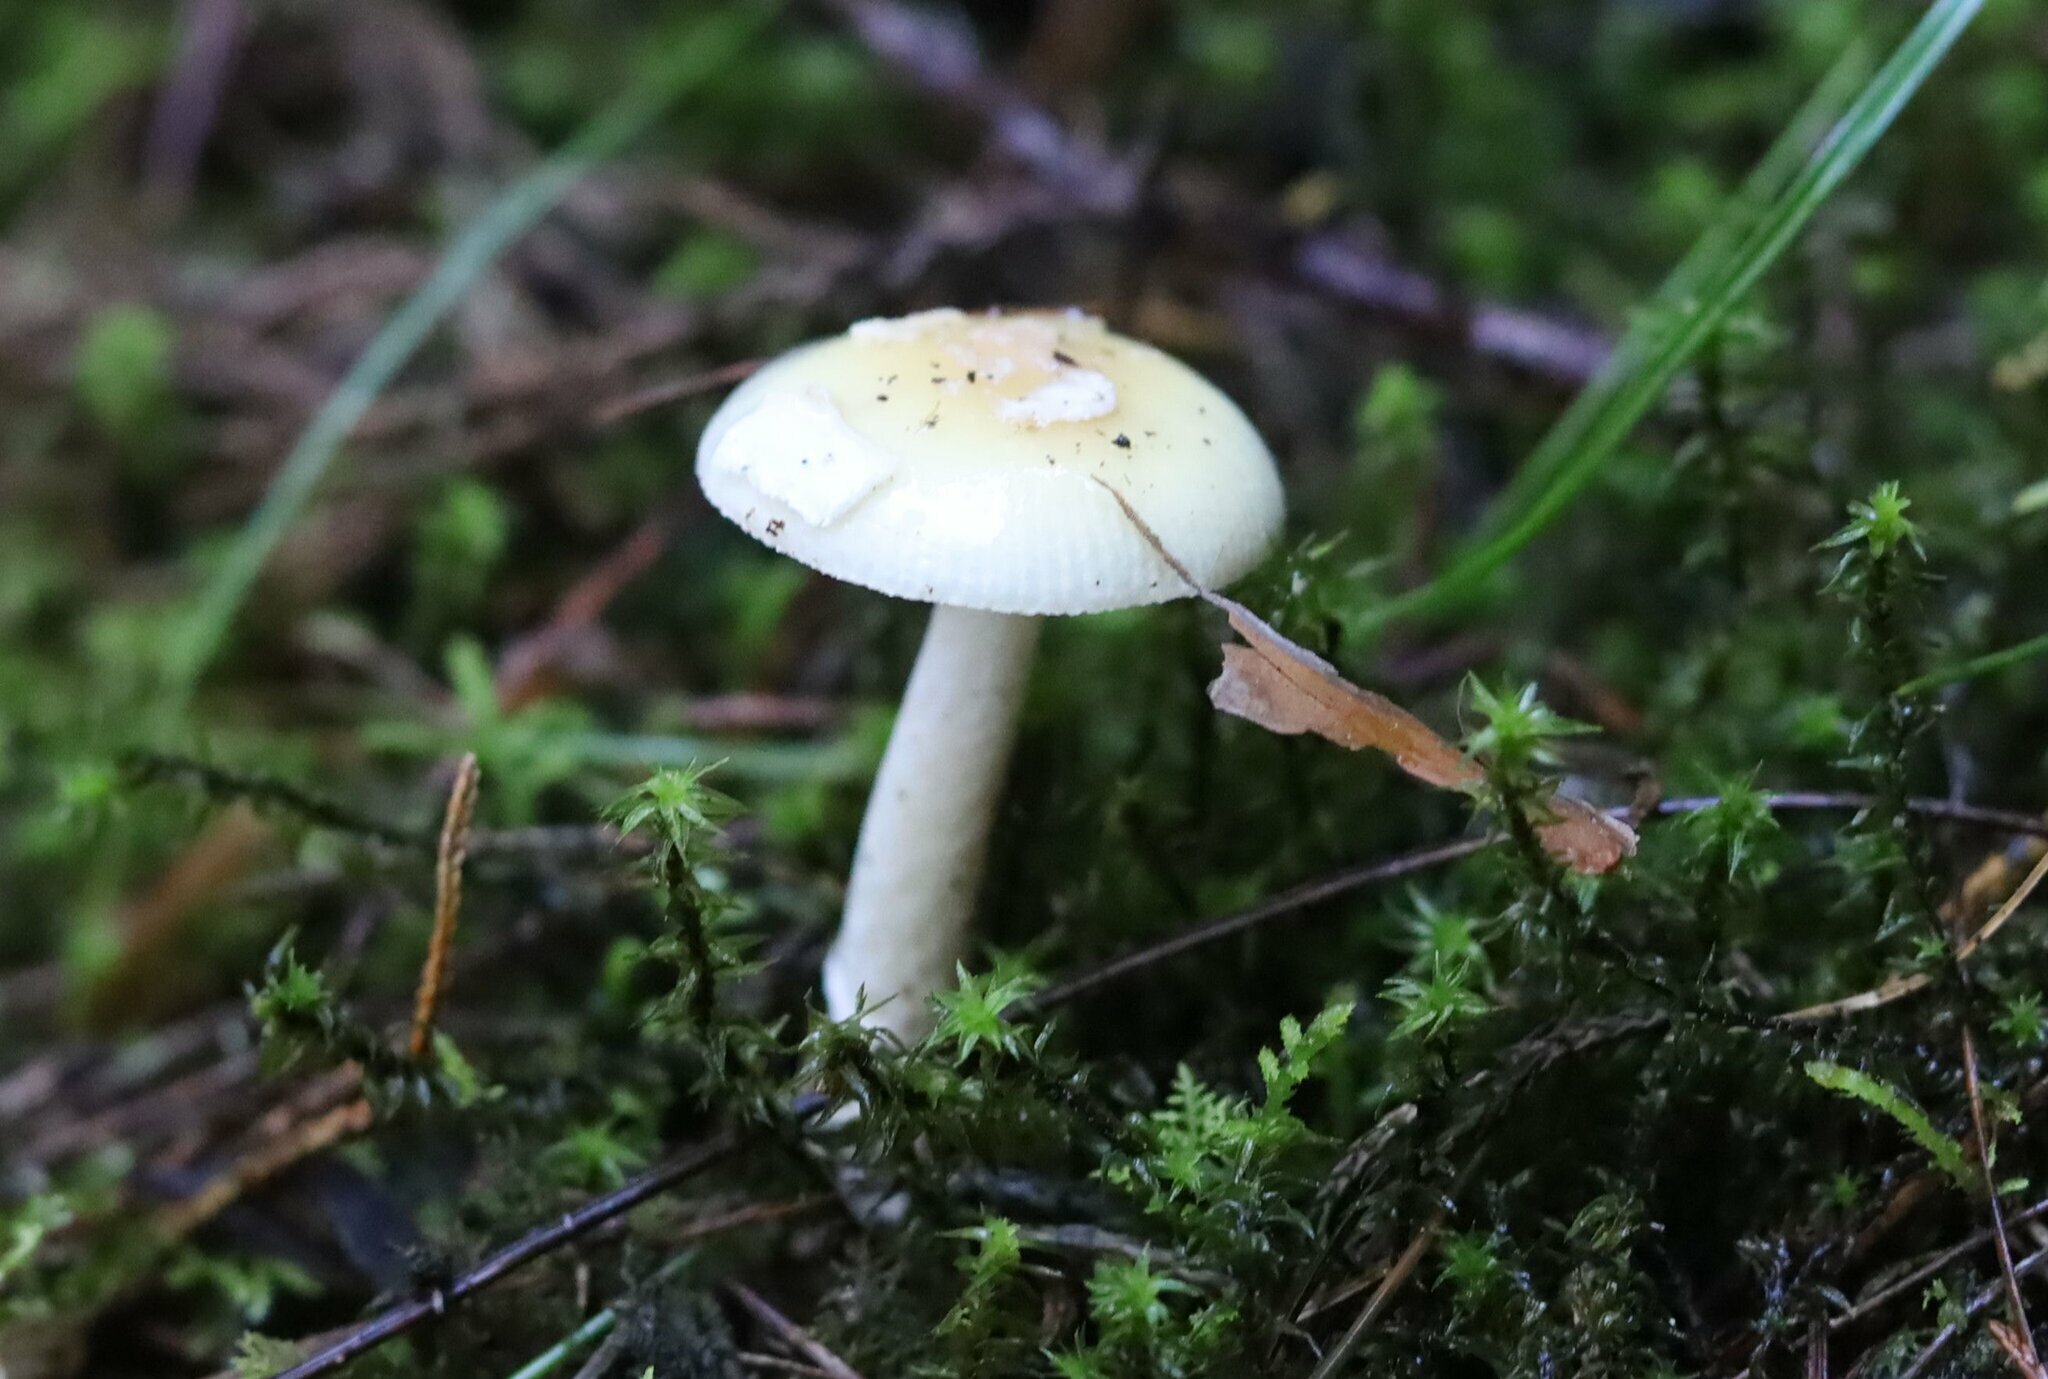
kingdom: Fungi
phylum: Basidiomycota
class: Agaricomycetes
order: Agaricales
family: Amanitaceae
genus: Amanita
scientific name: Amanita xylinivolva
